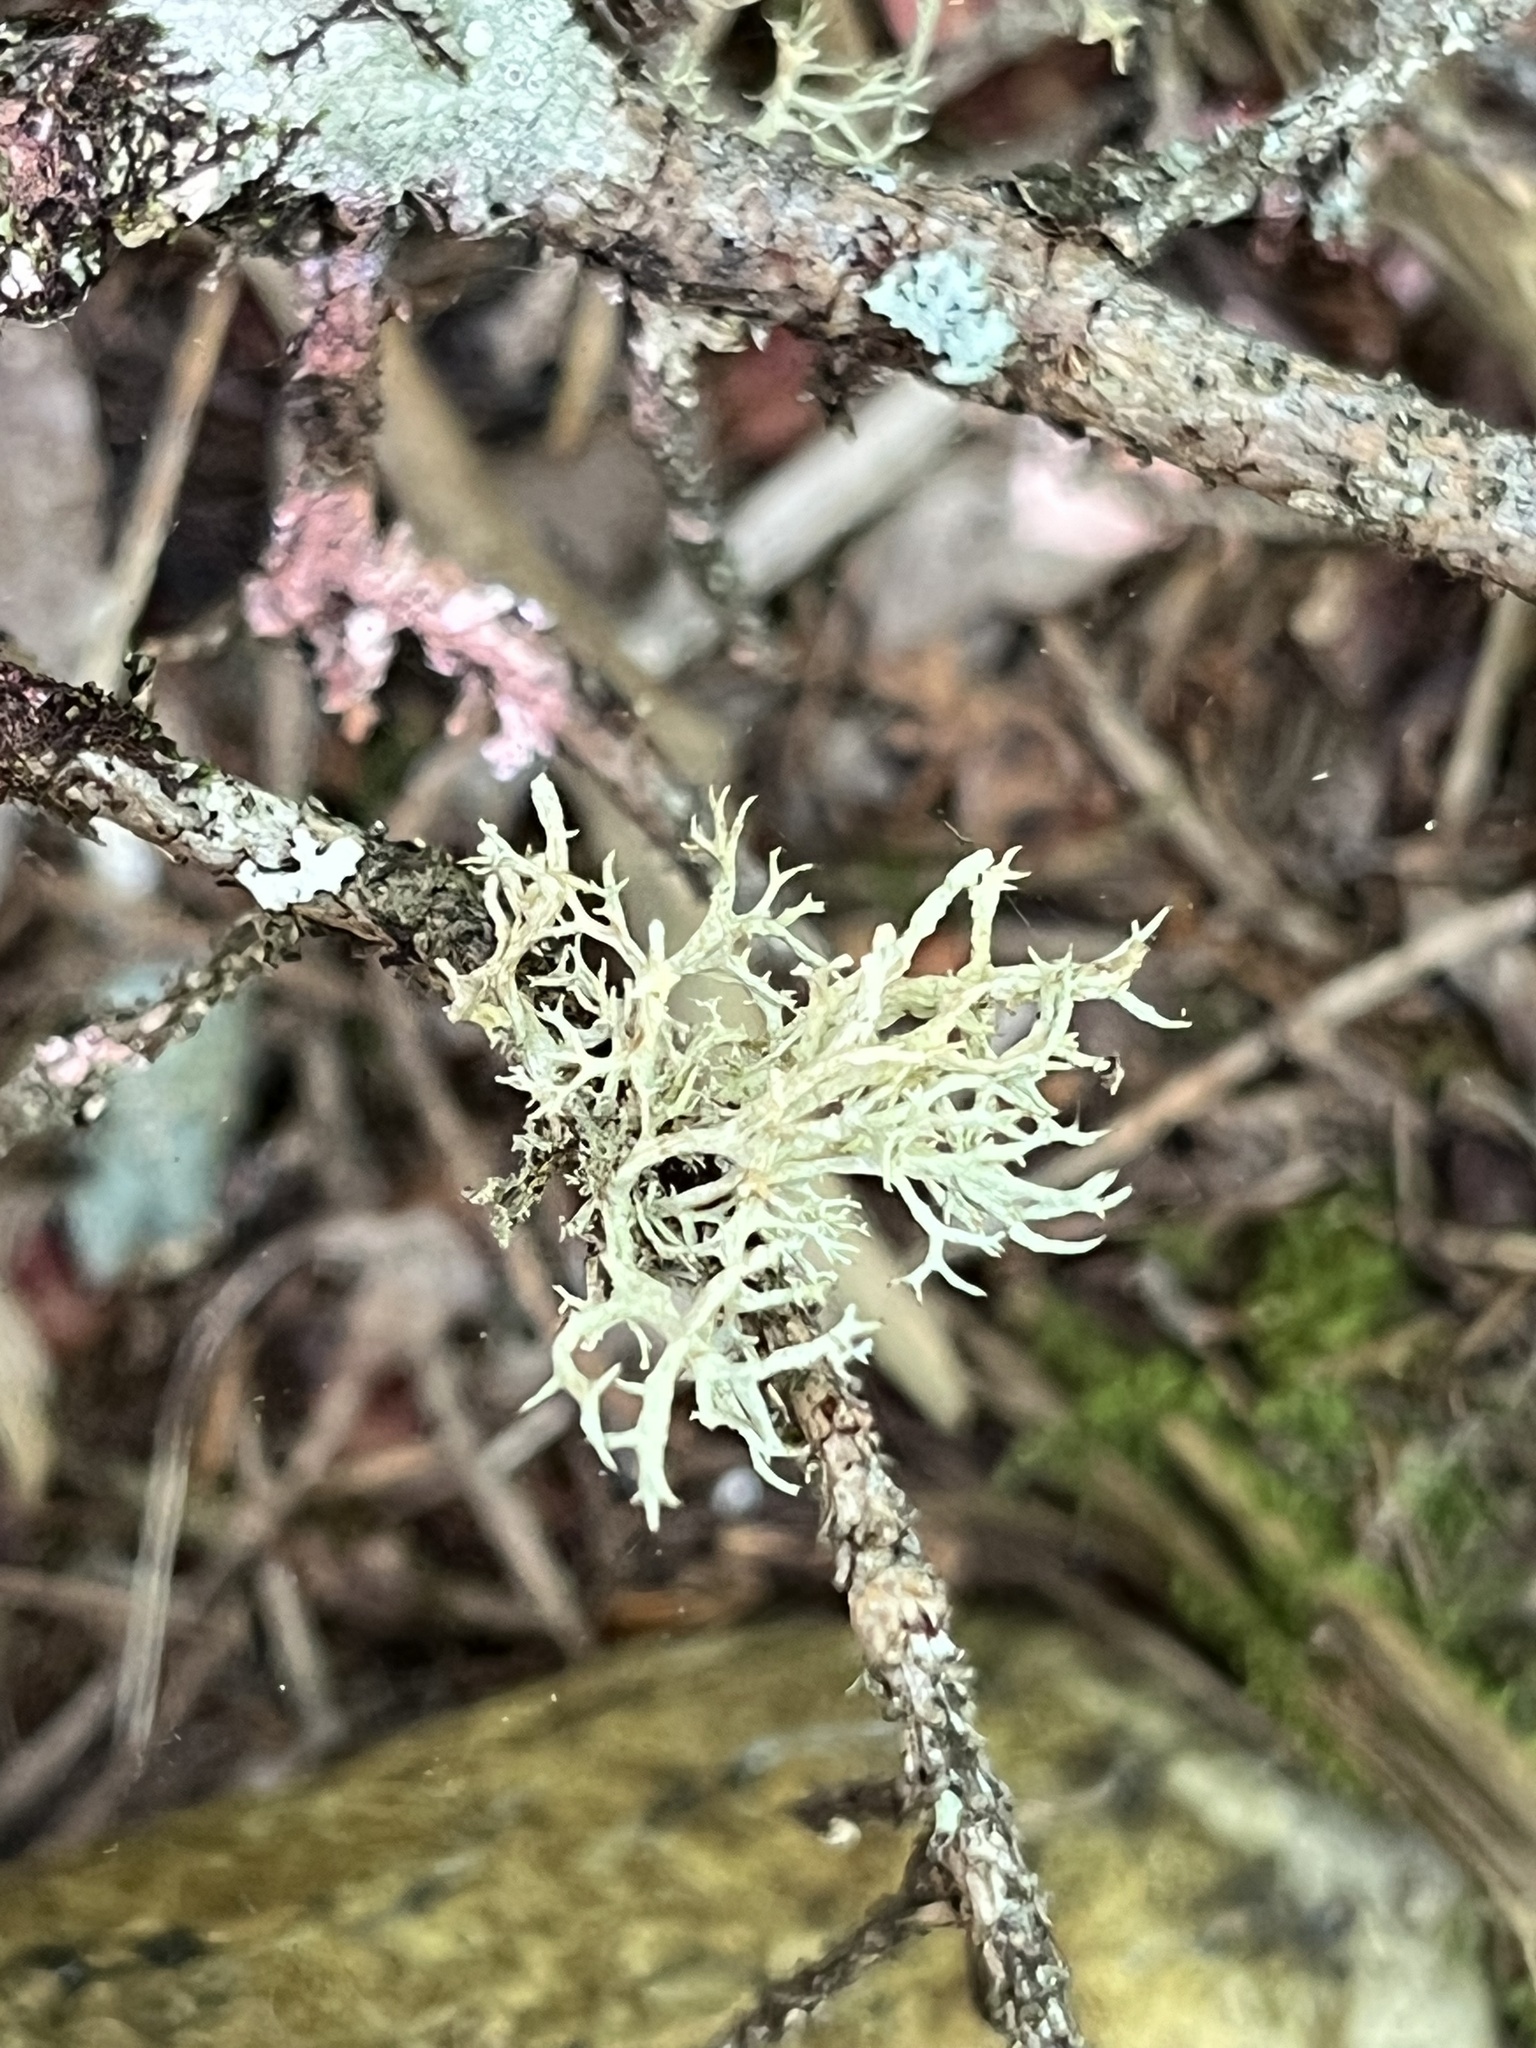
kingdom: Fungi
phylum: Ascomycota
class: Lecanoromycetes
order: Lecanorales
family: Parmeliaceae
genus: Evernia
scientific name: Evernia mesomorpha
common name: Boreal oak moss lichen
